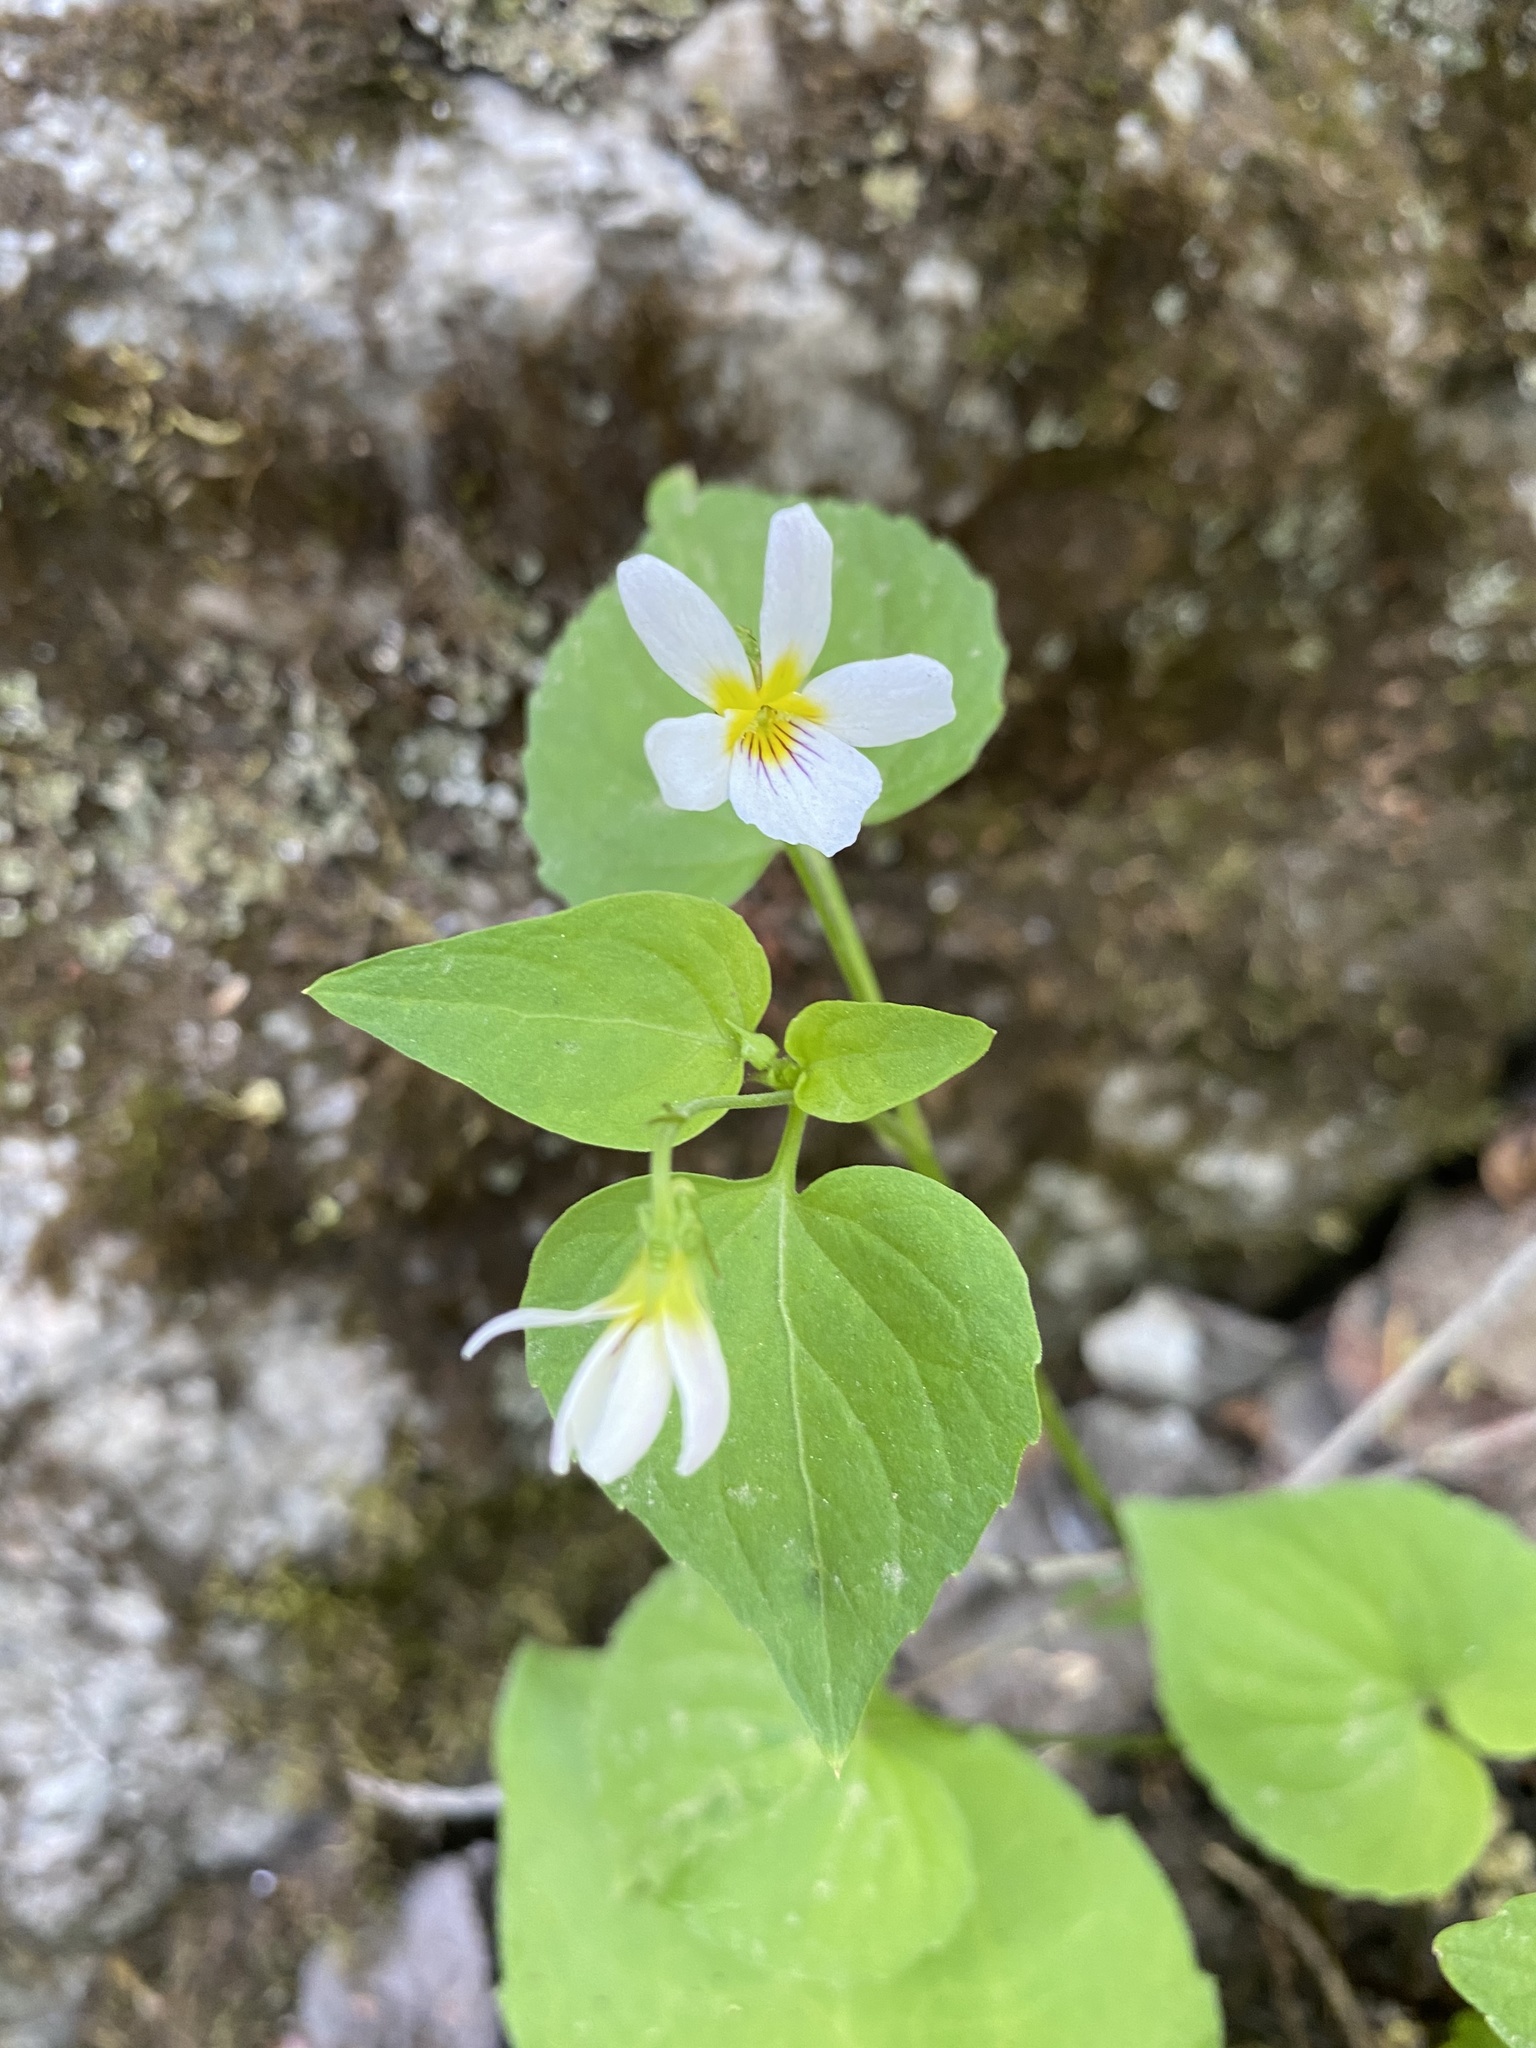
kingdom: Plantae
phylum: Tracheophyta
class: Magnoliopsida
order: Malpighiales
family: Violaceae
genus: Viola
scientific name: Viola canadensis
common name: Canada violet
